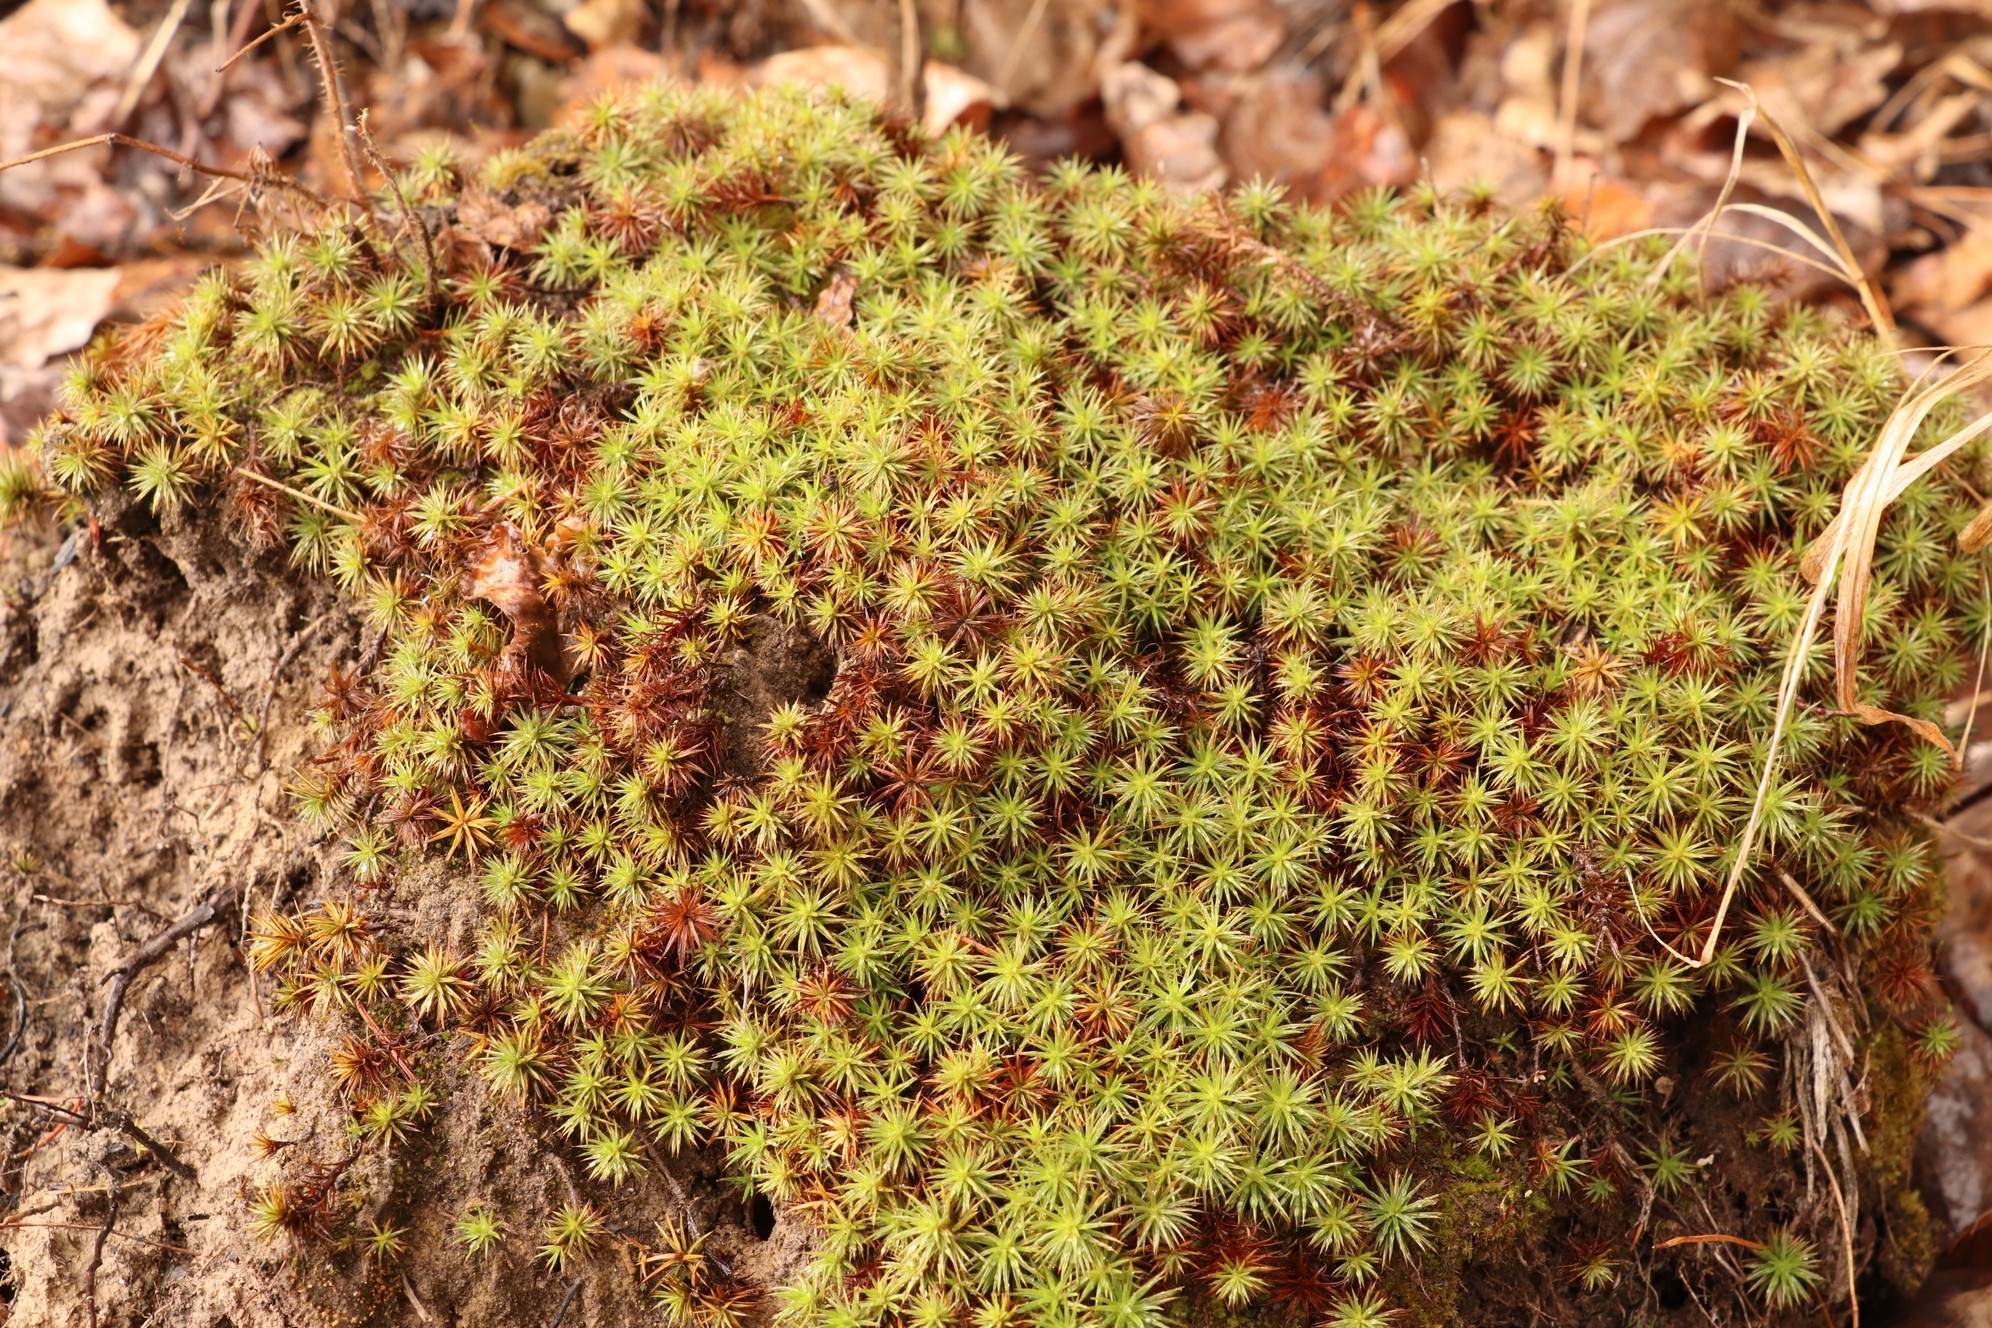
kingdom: Plantae
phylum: Bryophyta
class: Polytrichopsida
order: Polytrichales
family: Polytrichaceae
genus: Polytrichum
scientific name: Polytrichum juniperinum
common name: Juniper haircap moss
